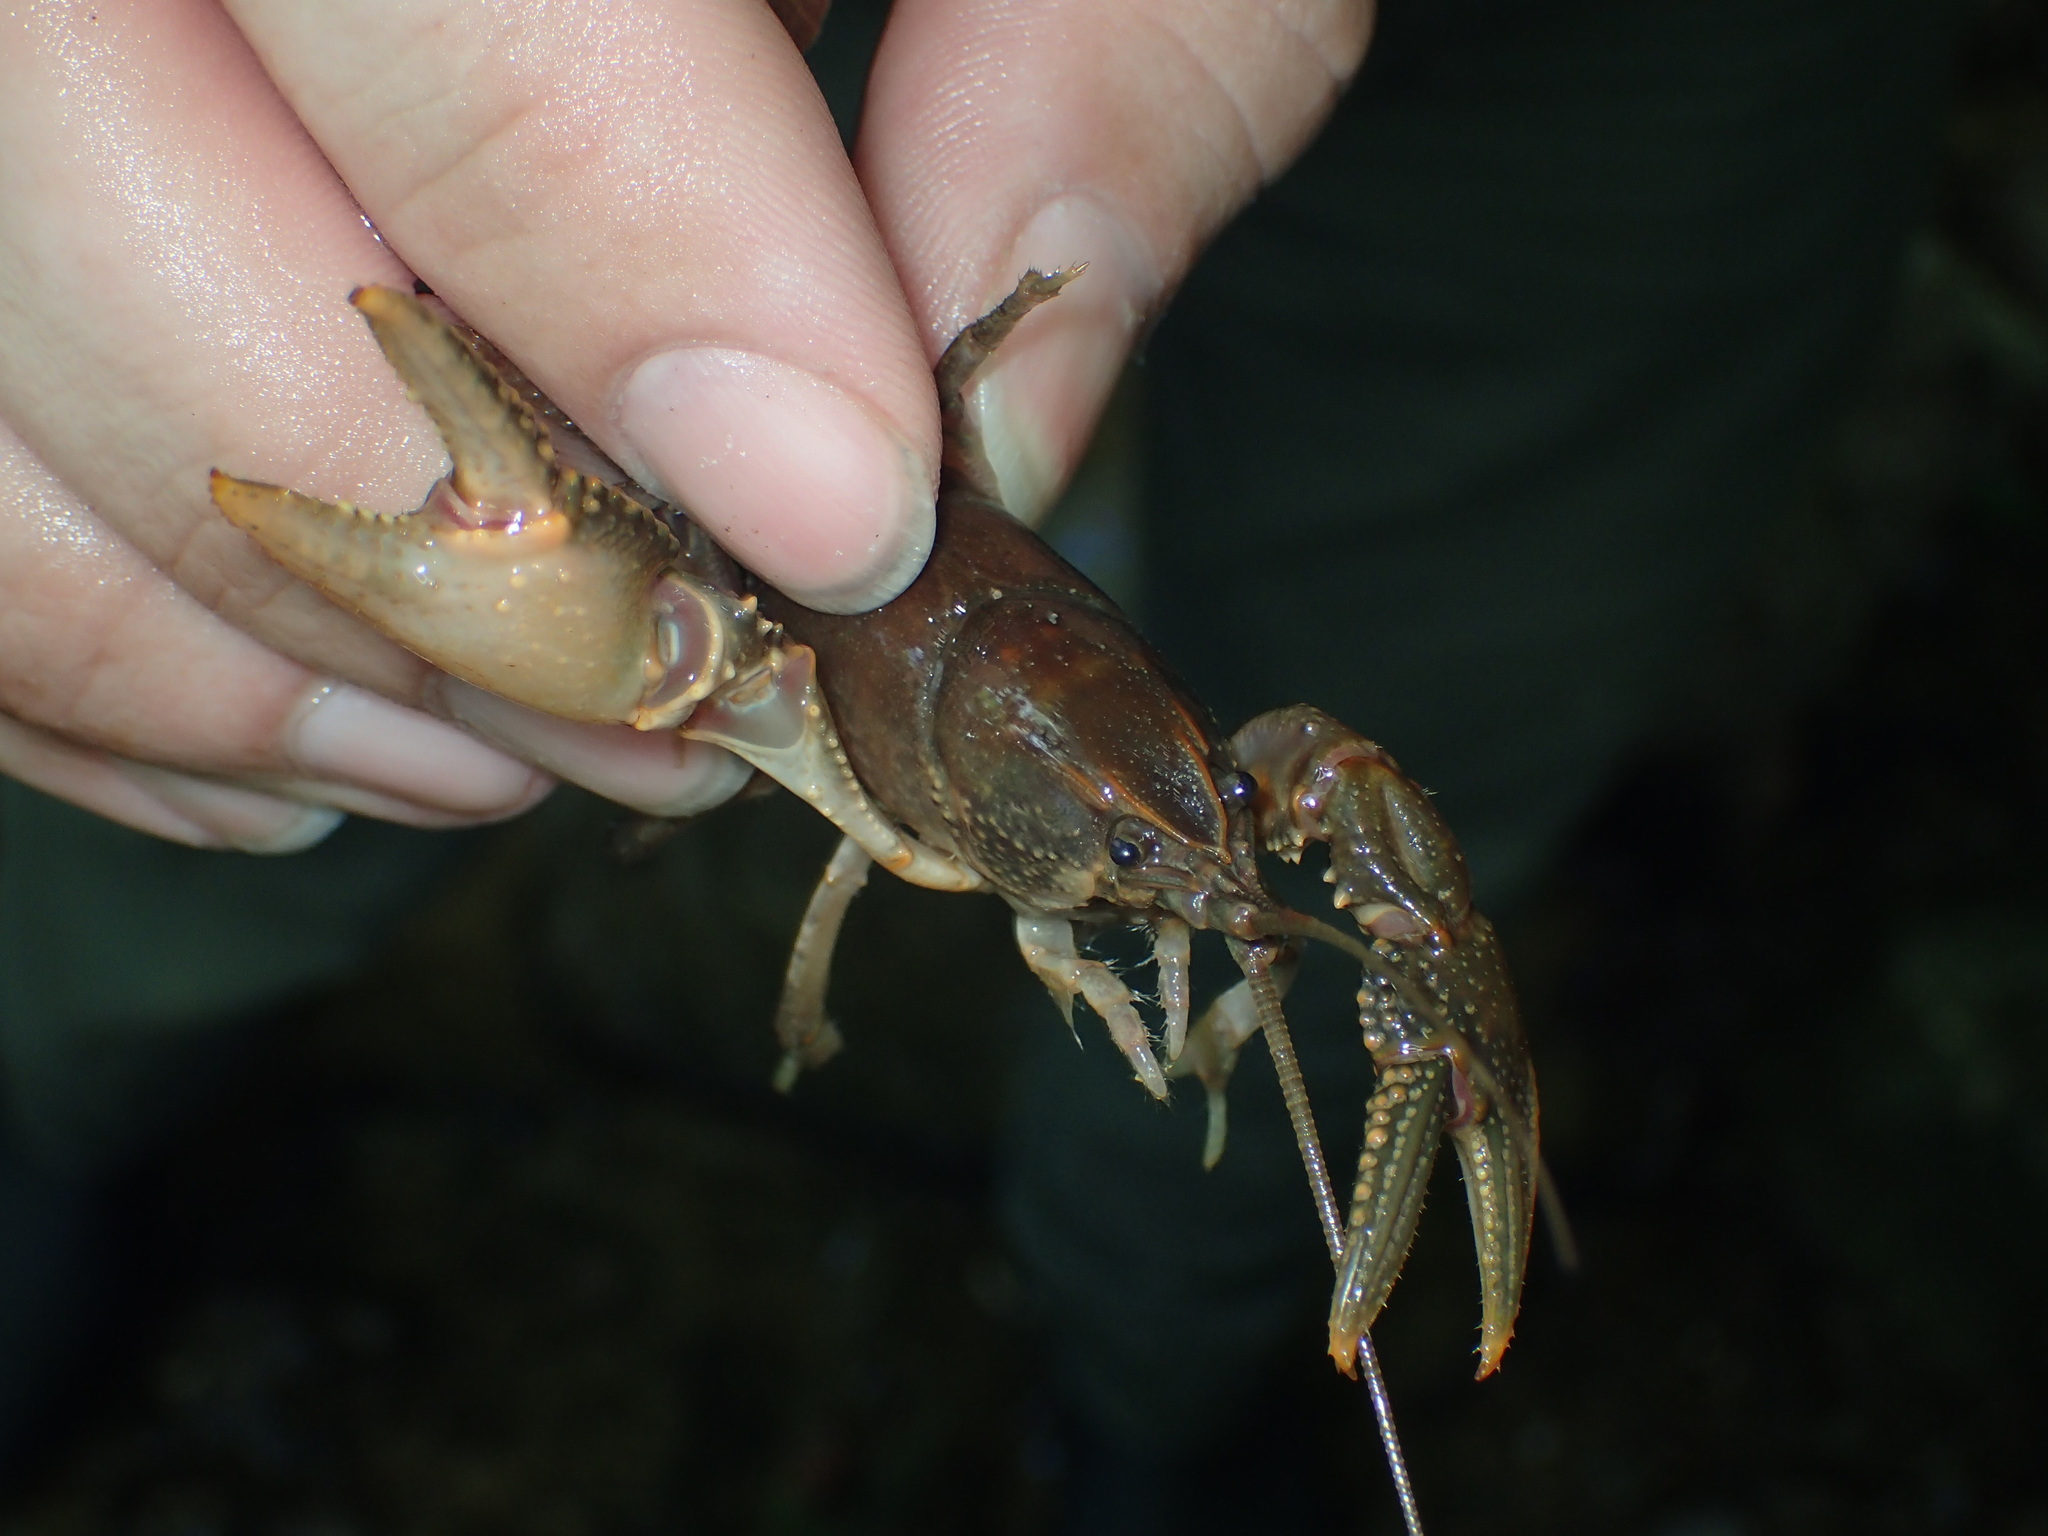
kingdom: Animalia
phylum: Arthropoda
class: Malacostraca
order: Decapoda
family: Cambaridae
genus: Cambarus
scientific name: Cambarus striatus
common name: Ambiguous crayfish
